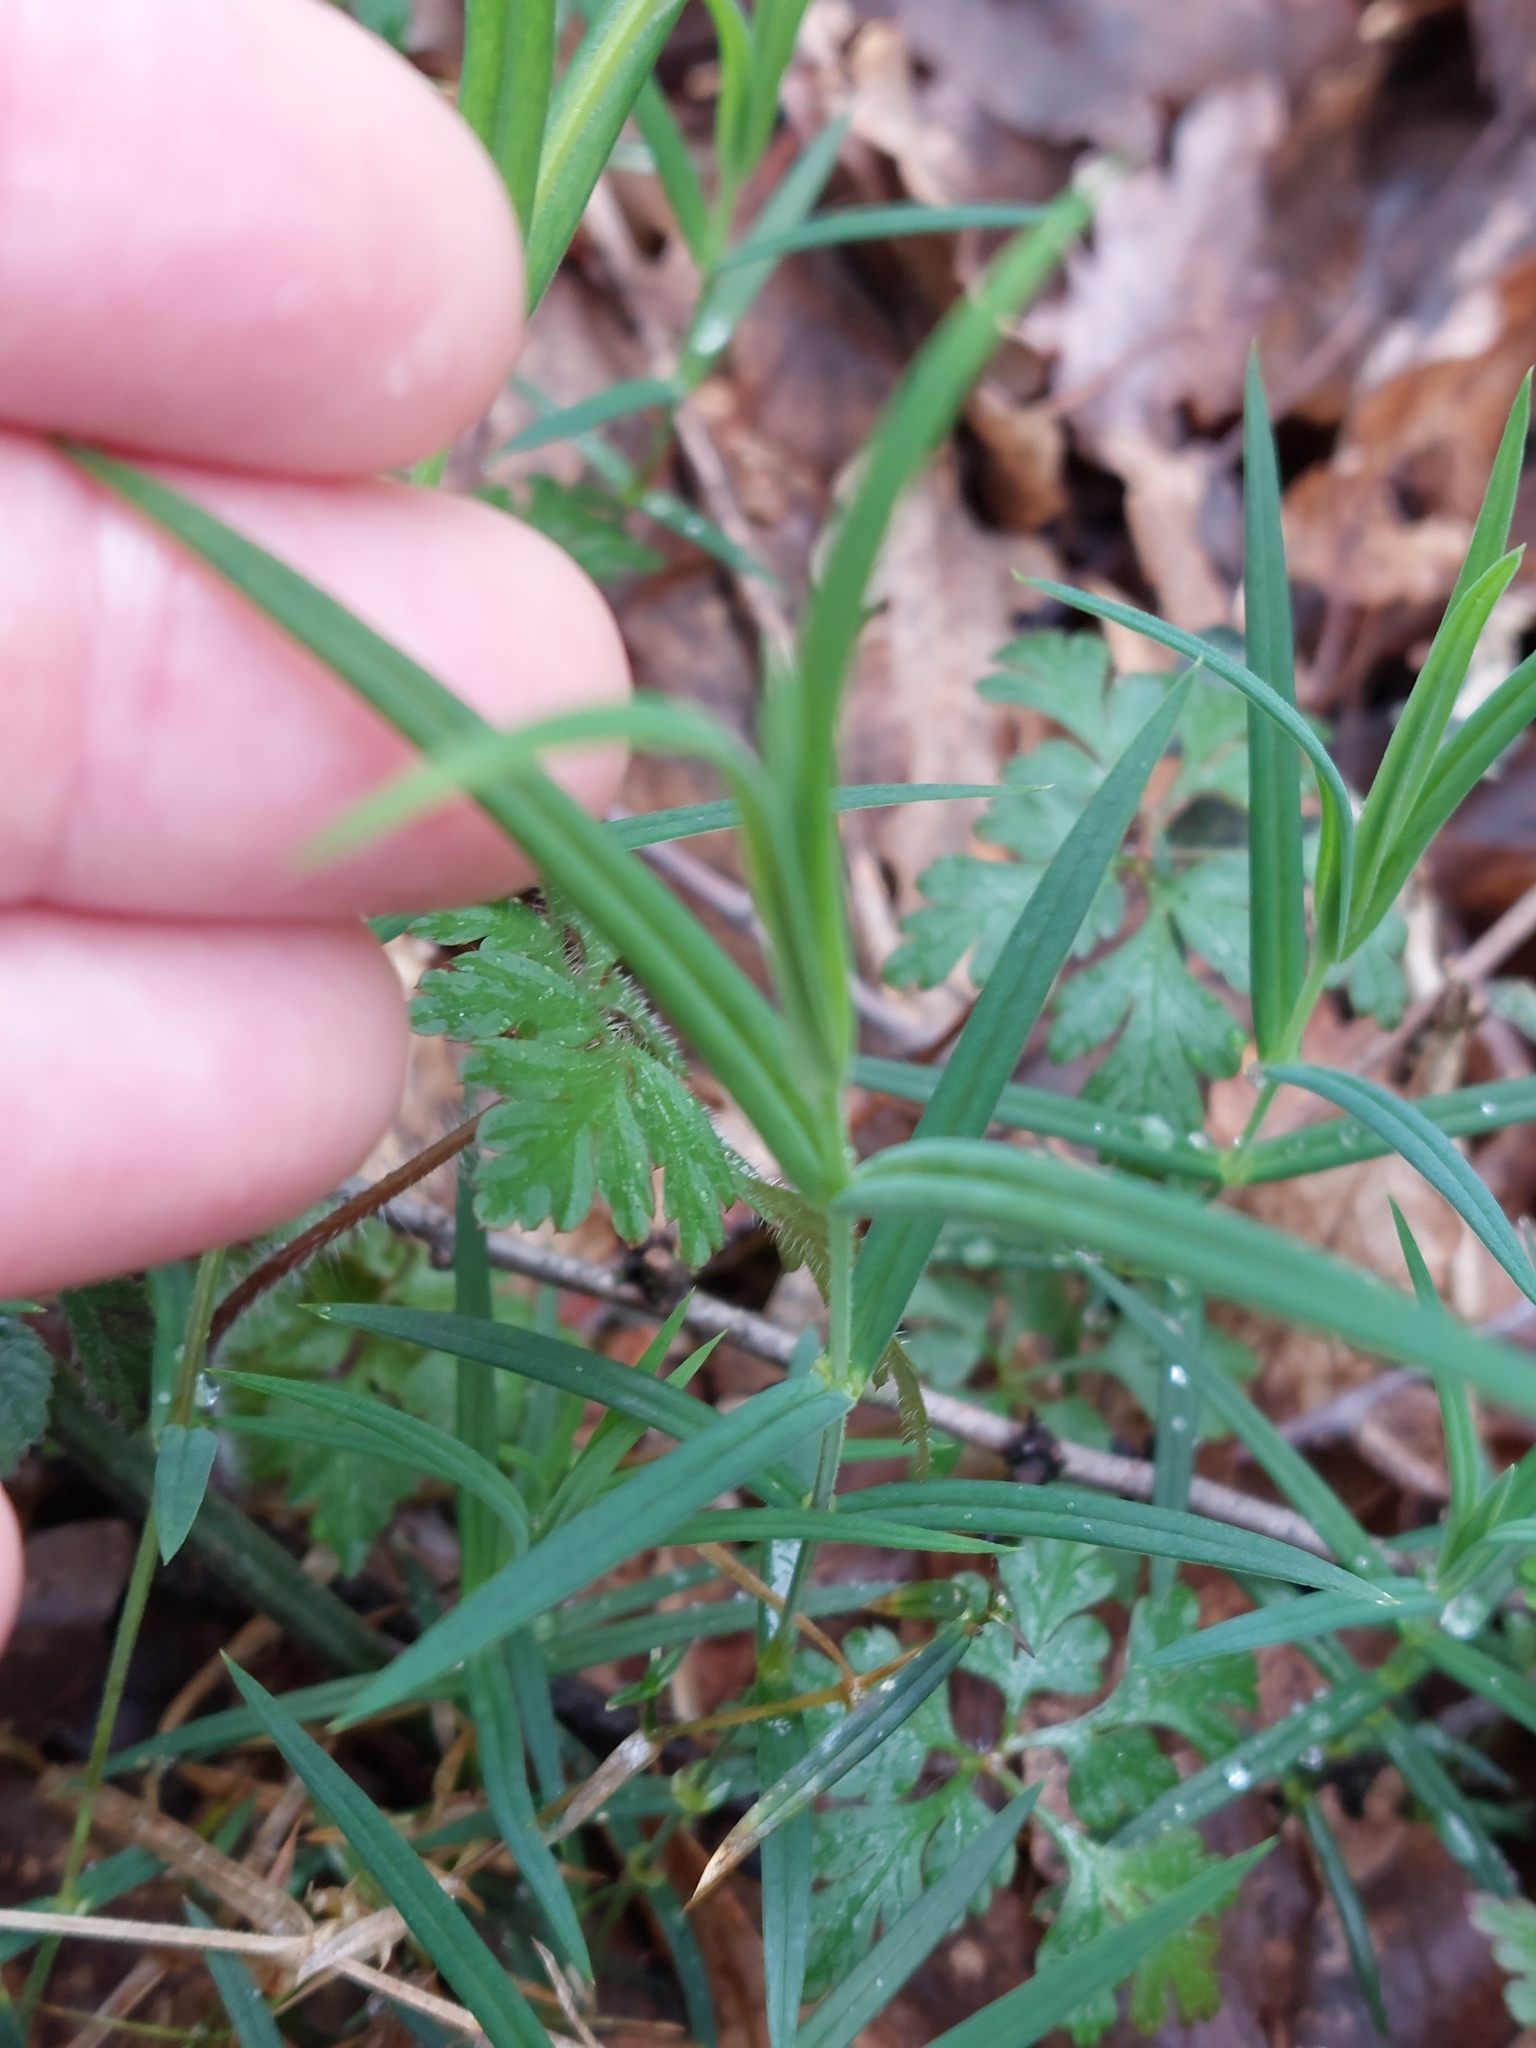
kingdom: Plantae
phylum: Tracheophyta
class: Magnoliopsida
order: Caryophyllales
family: Caryophyllaceae
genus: Rabelera
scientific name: Rabelera holostea
